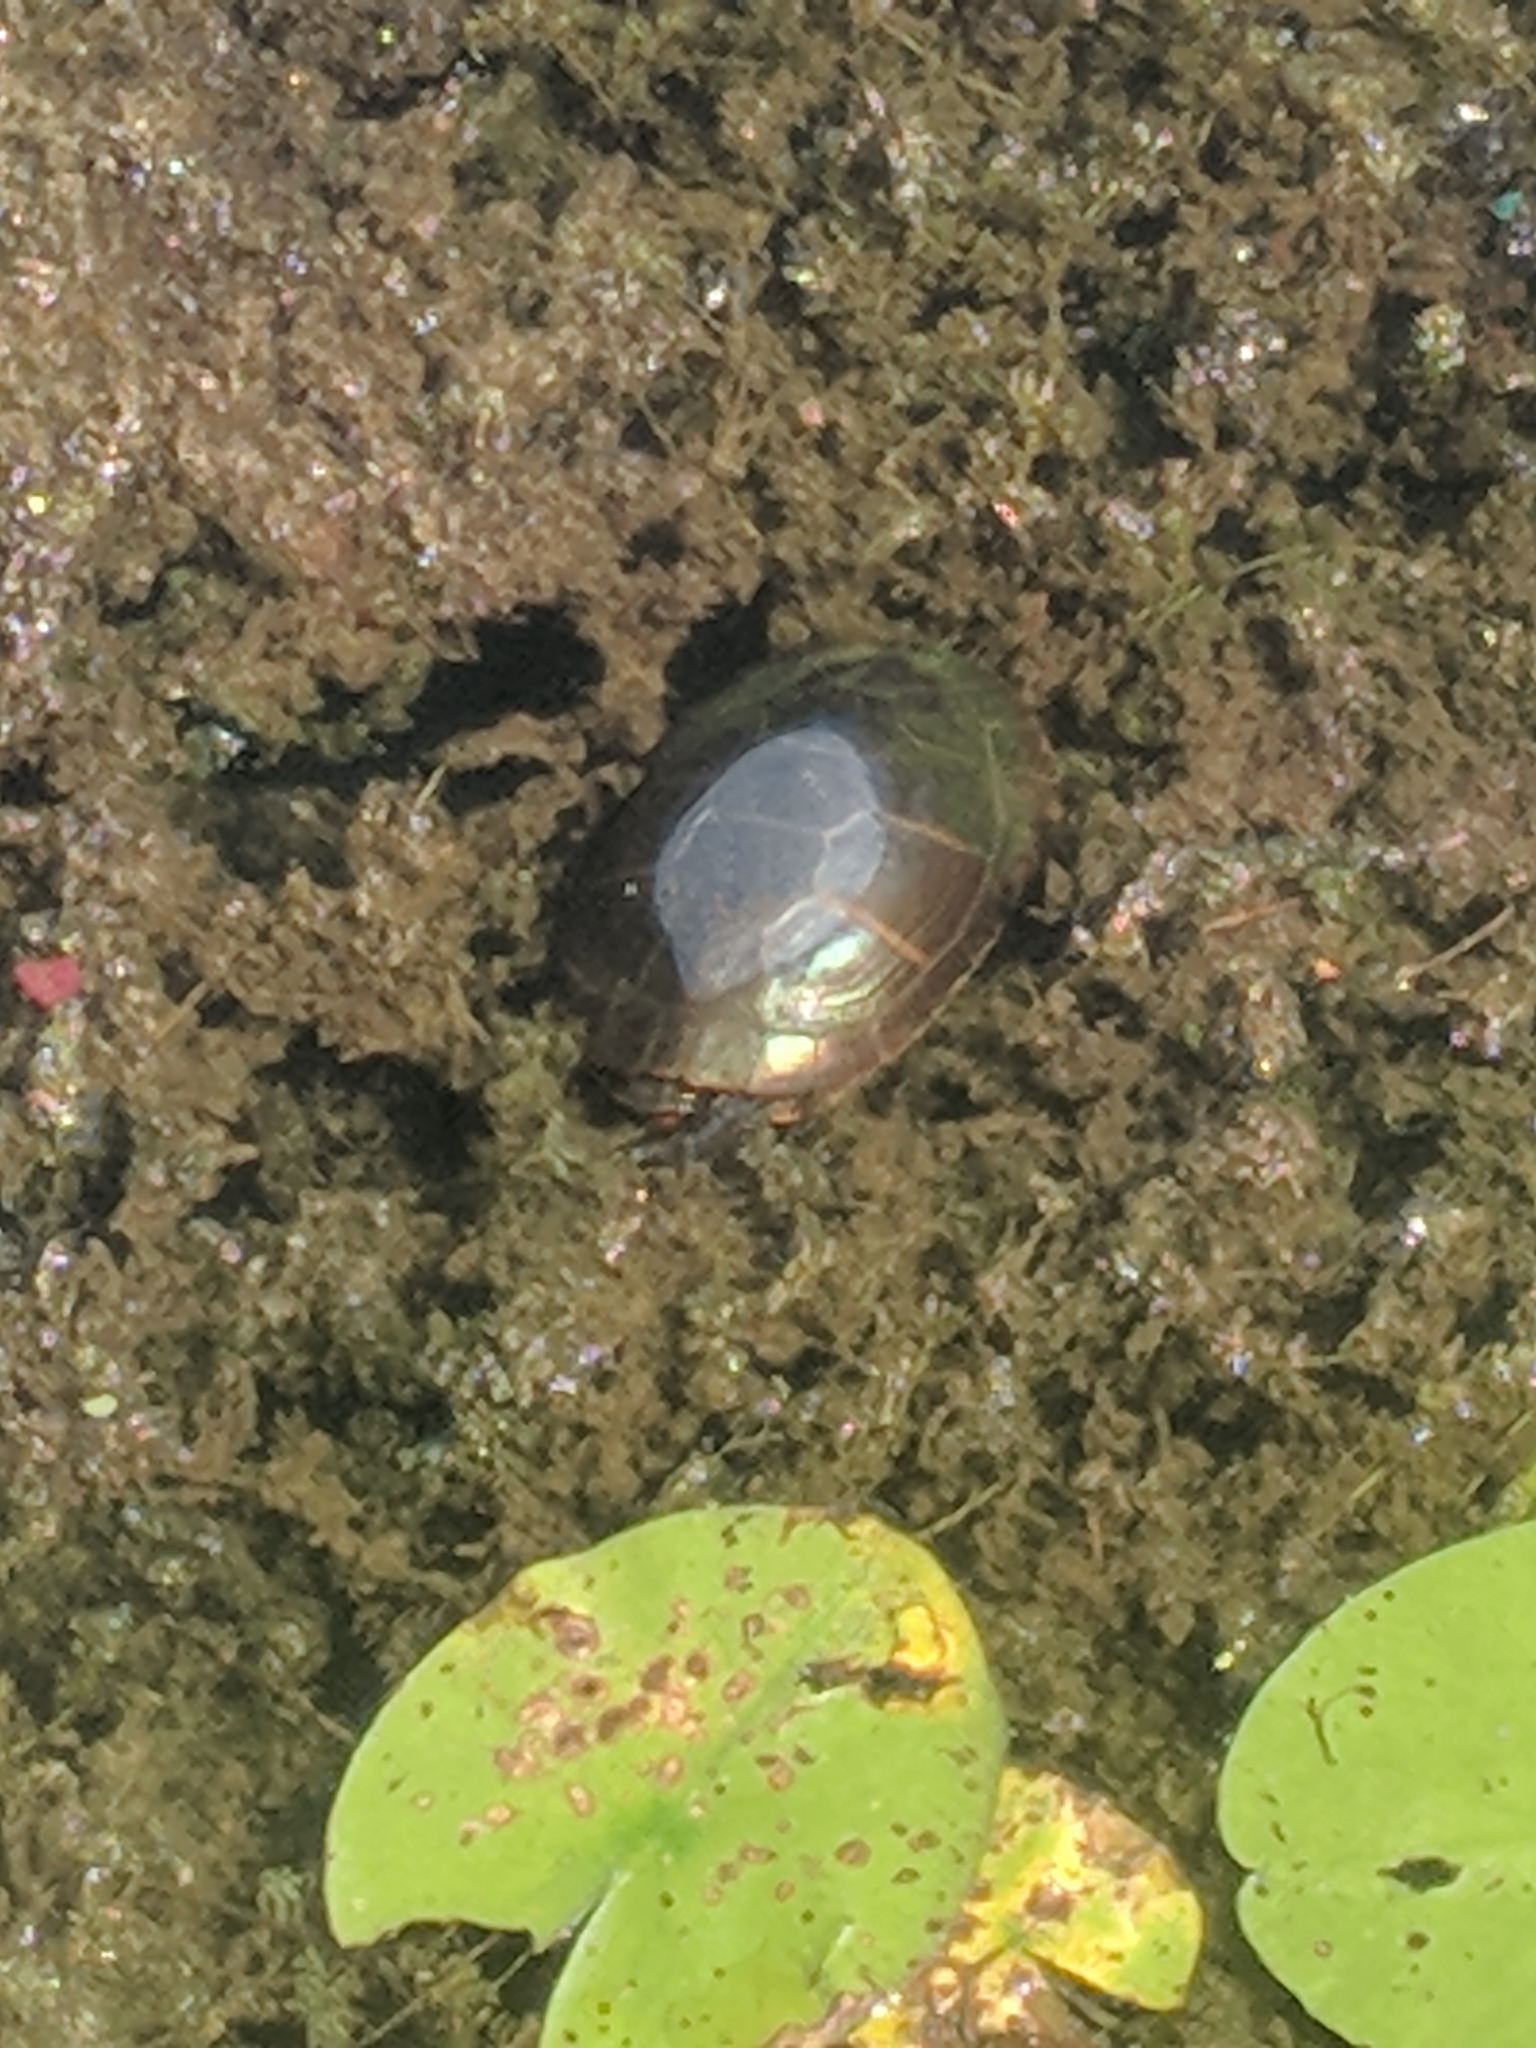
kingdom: Animalia
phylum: Chordata
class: Testudines
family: Emydidae
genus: Chrysemys
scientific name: Chrysemys picta
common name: Painted turtle
